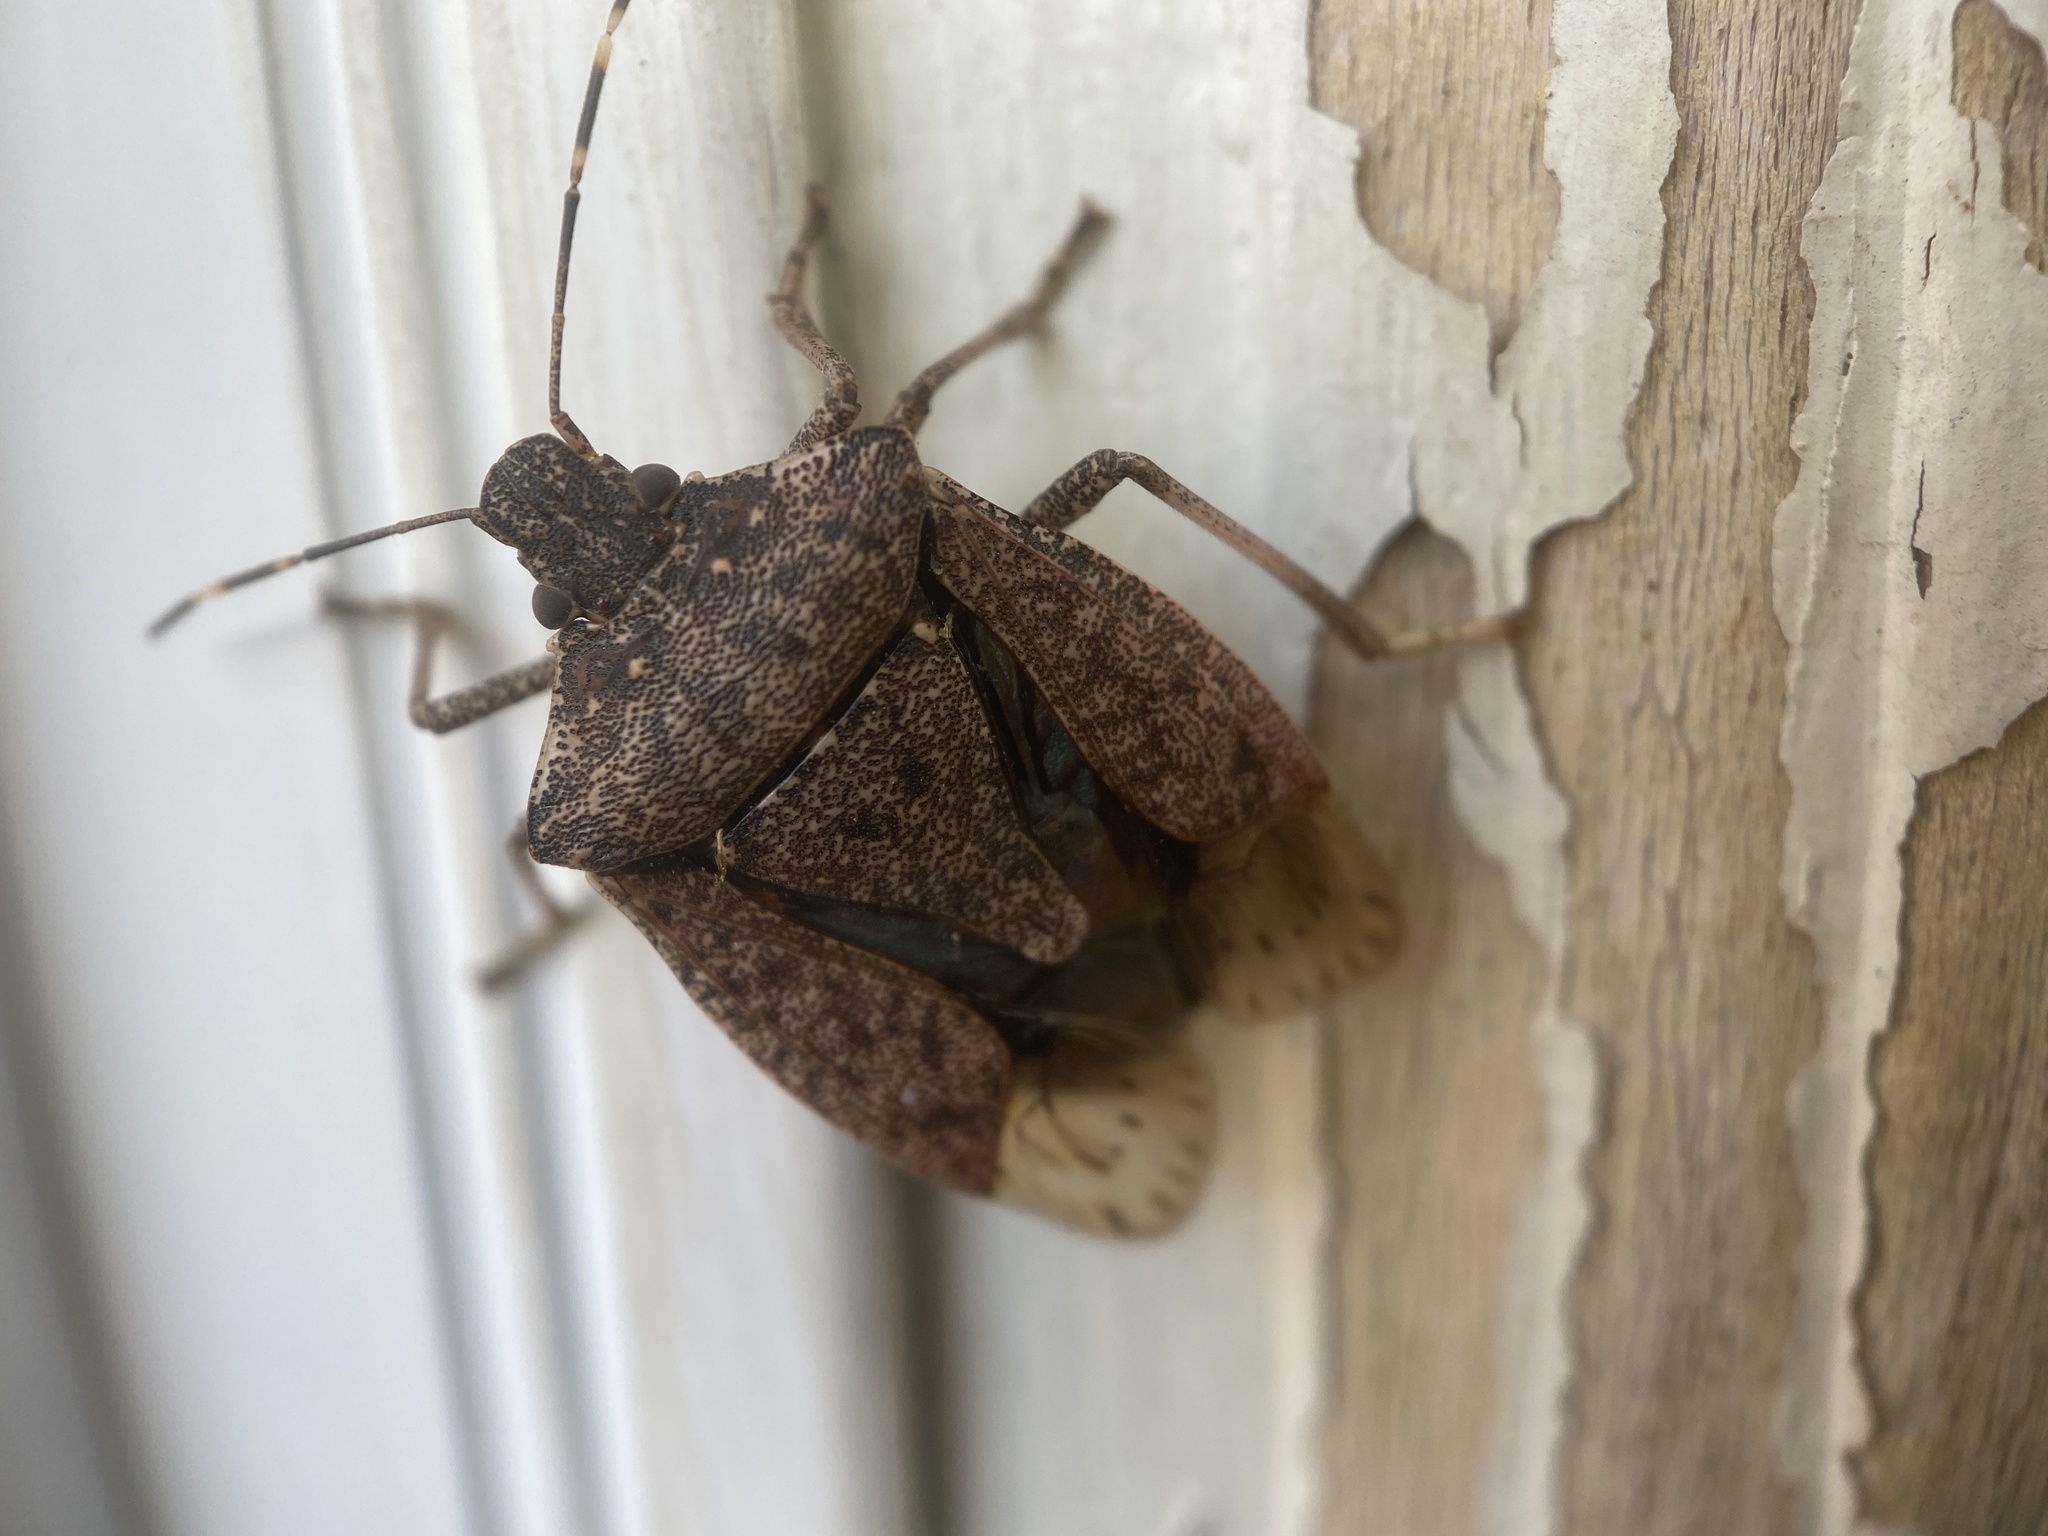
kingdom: Animalia
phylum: Arthropoda
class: Insecta
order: Hemiptera
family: Pentatomidae
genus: Halyomorpha
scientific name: Halyomorpha halys
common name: Brown marmorated stink bug
